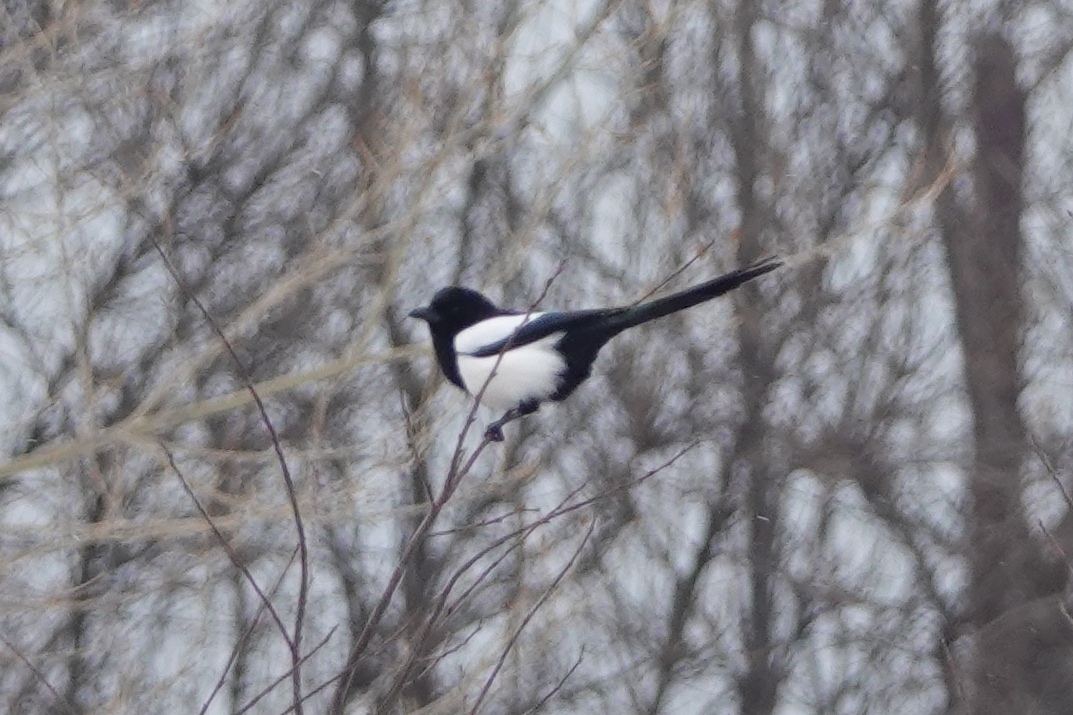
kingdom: Animalia
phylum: Chordata
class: Aves
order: Passeriformes
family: Corvidae
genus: Pica
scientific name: Pica pica
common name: Eurasian magpie
